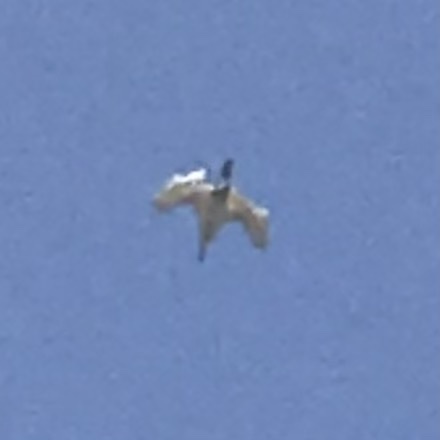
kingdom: Animalia
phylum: Chordata
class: Aves
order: Pelecaniformes
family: Ardeidae
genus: Ardea
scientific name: Ardea alba
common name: Great egret
